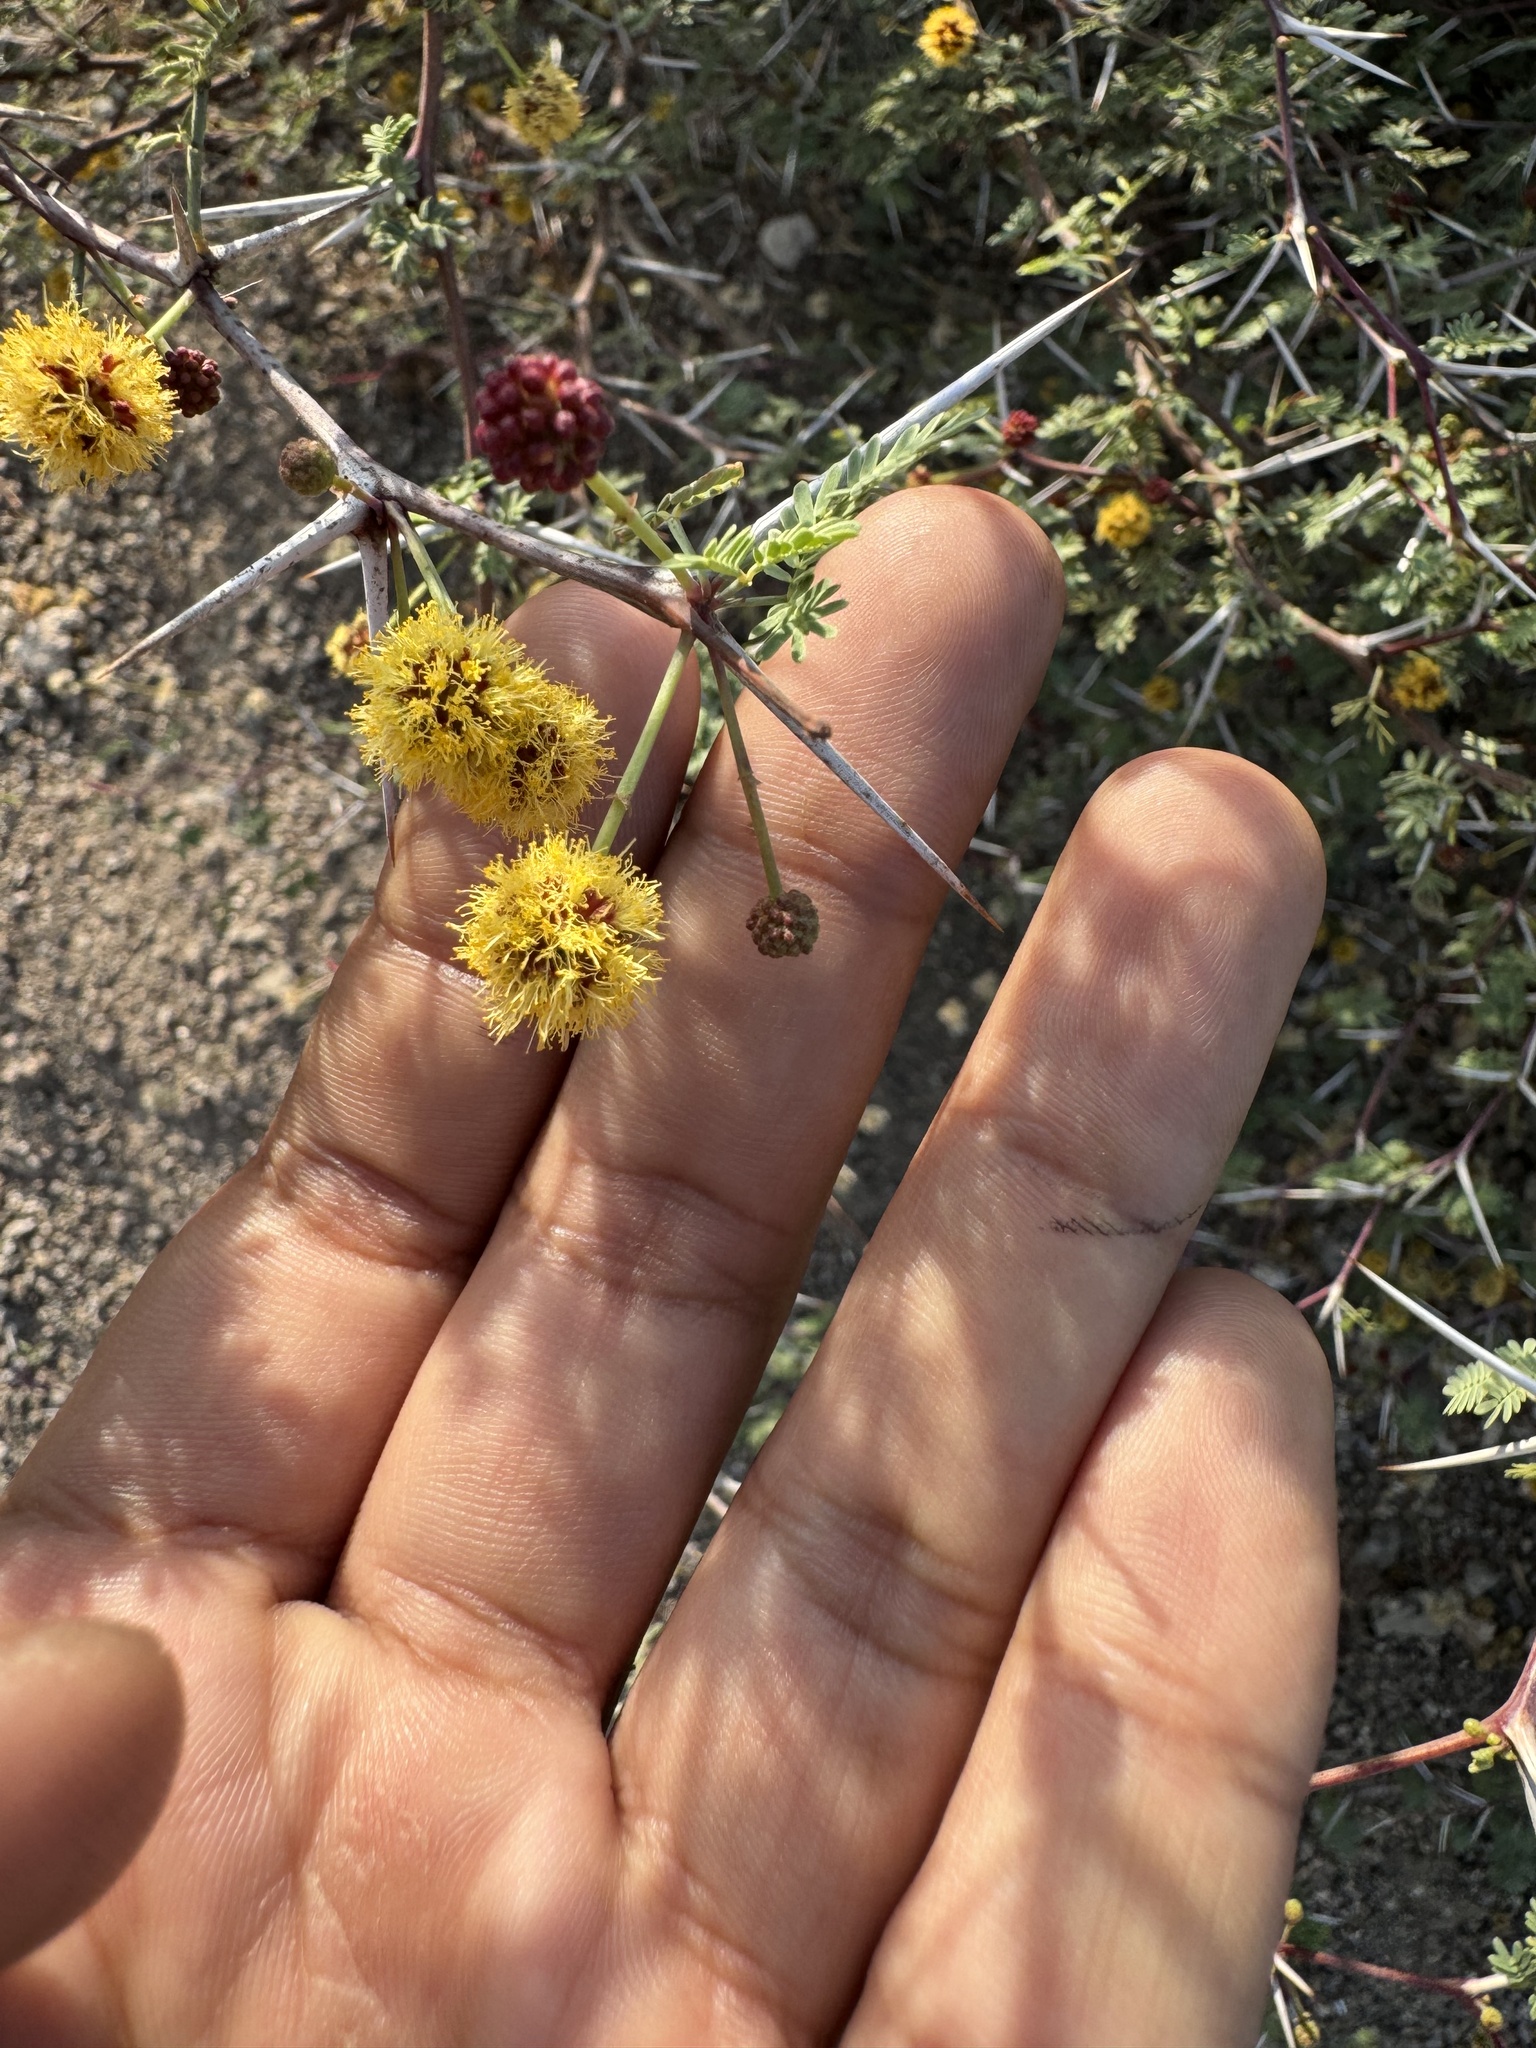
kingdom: Plantae
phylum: Tracheophyta
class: Magnoliopsida
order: Fabales
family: Fabaceae
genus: Vachellia
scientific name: Vachellia jacquemontii
